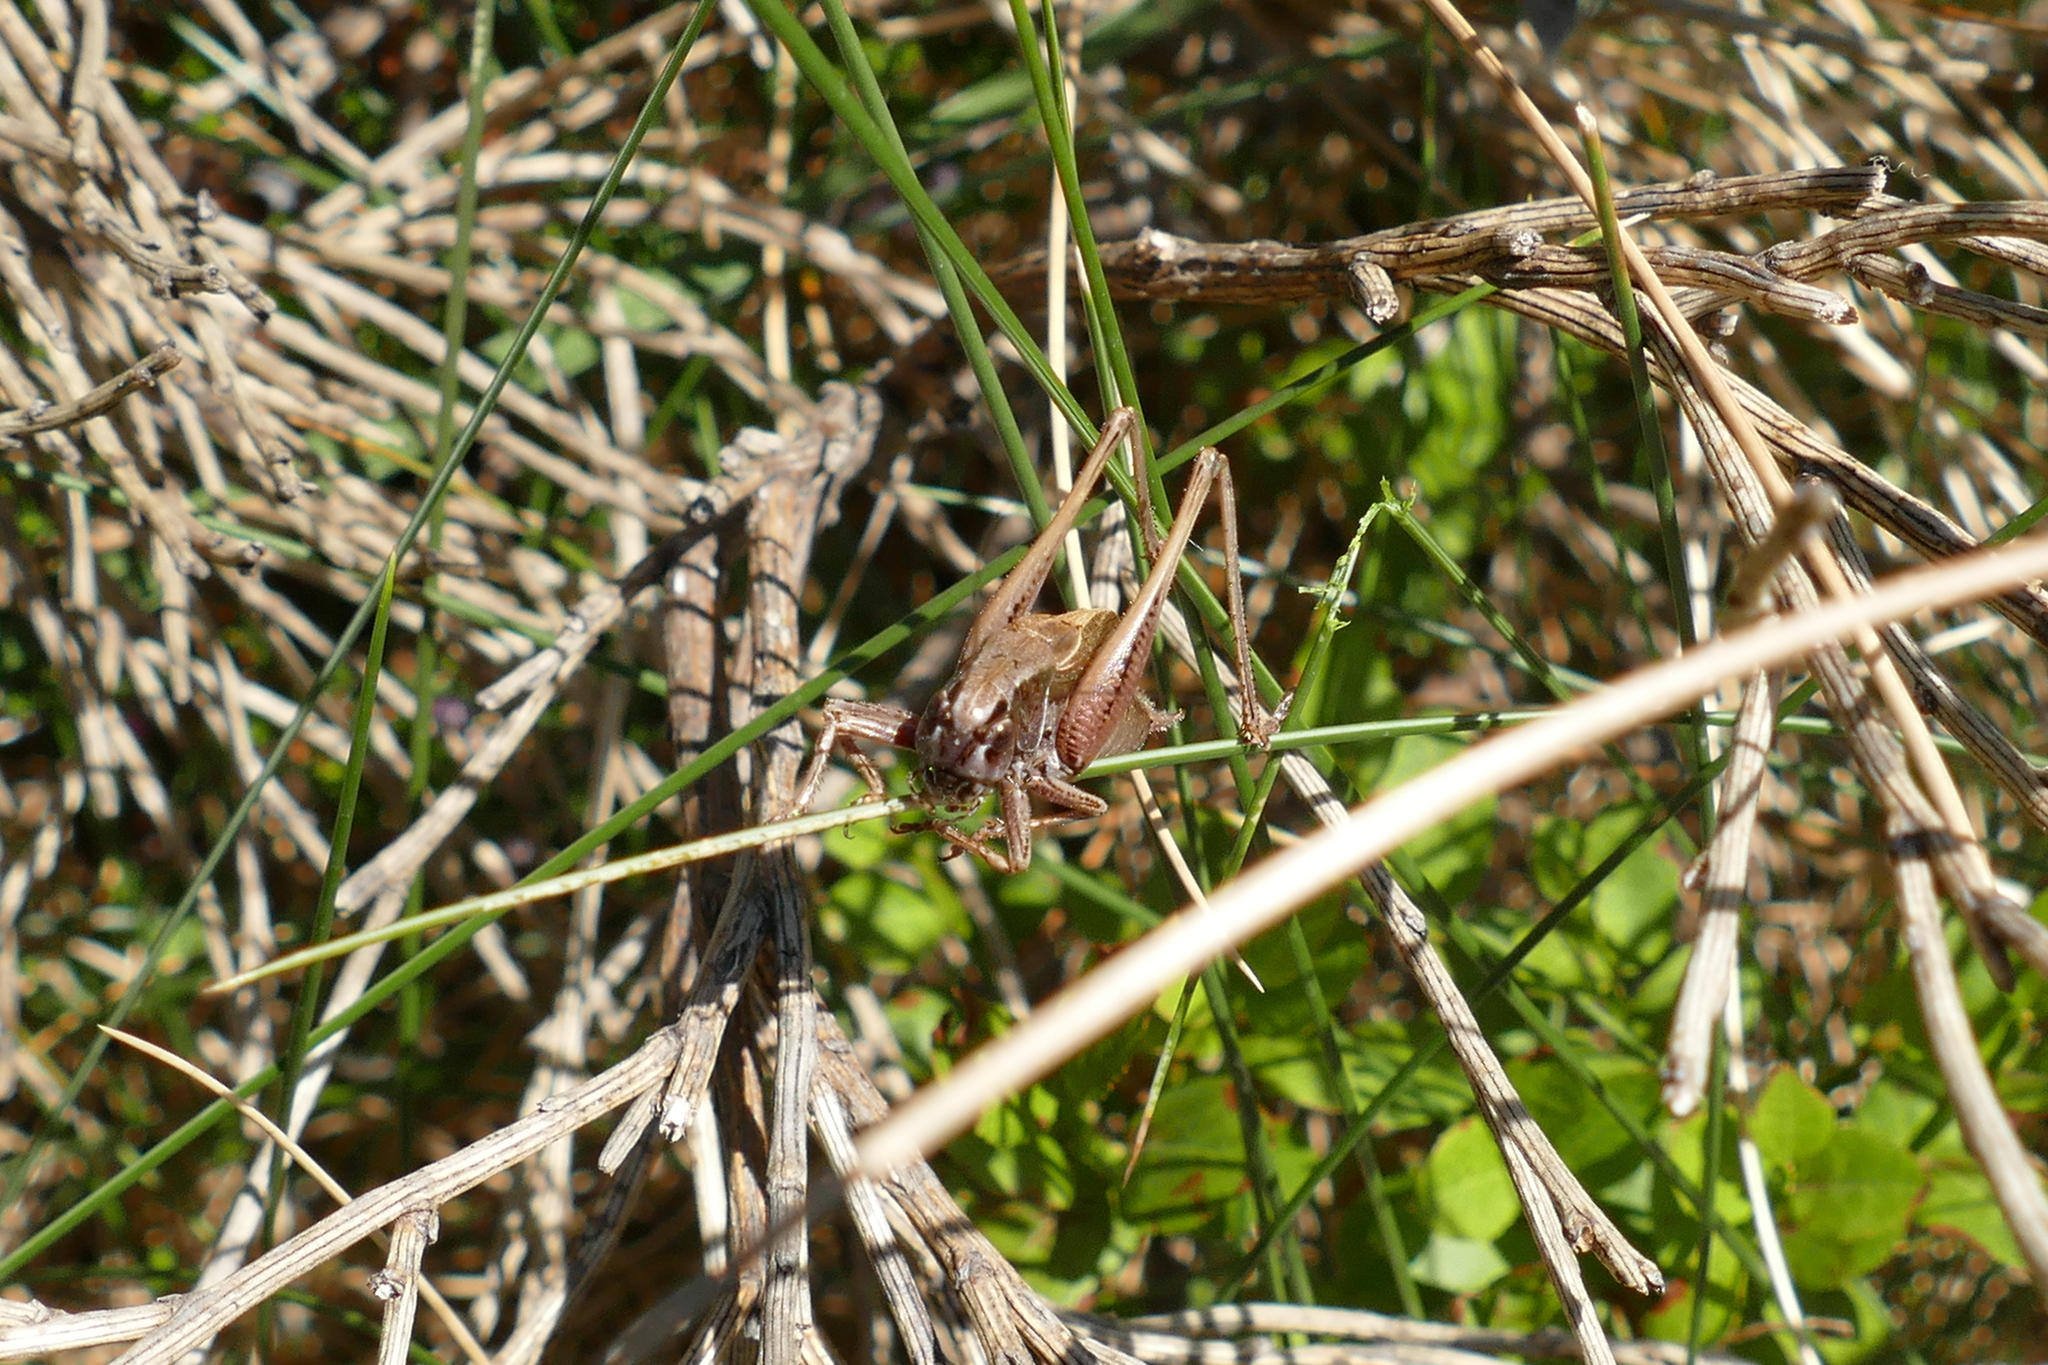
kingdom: Animalia
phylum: Arthropoda
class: Insecta
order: Orthoptera
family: Tettigoniidae
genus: Metrioptera
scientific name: Metrioptera saussuriana
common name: Purple meadow bush-cricket
